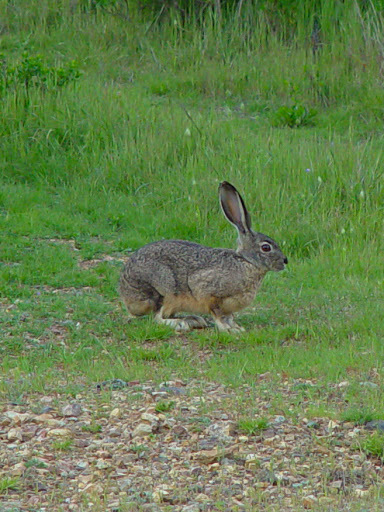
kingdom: Animalia
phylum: Chordata
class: Mammalia
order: Lagomorpha
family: Leporidae
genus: Lepus
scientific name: Lepus californicus
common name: Black-tailed jackrabbit
